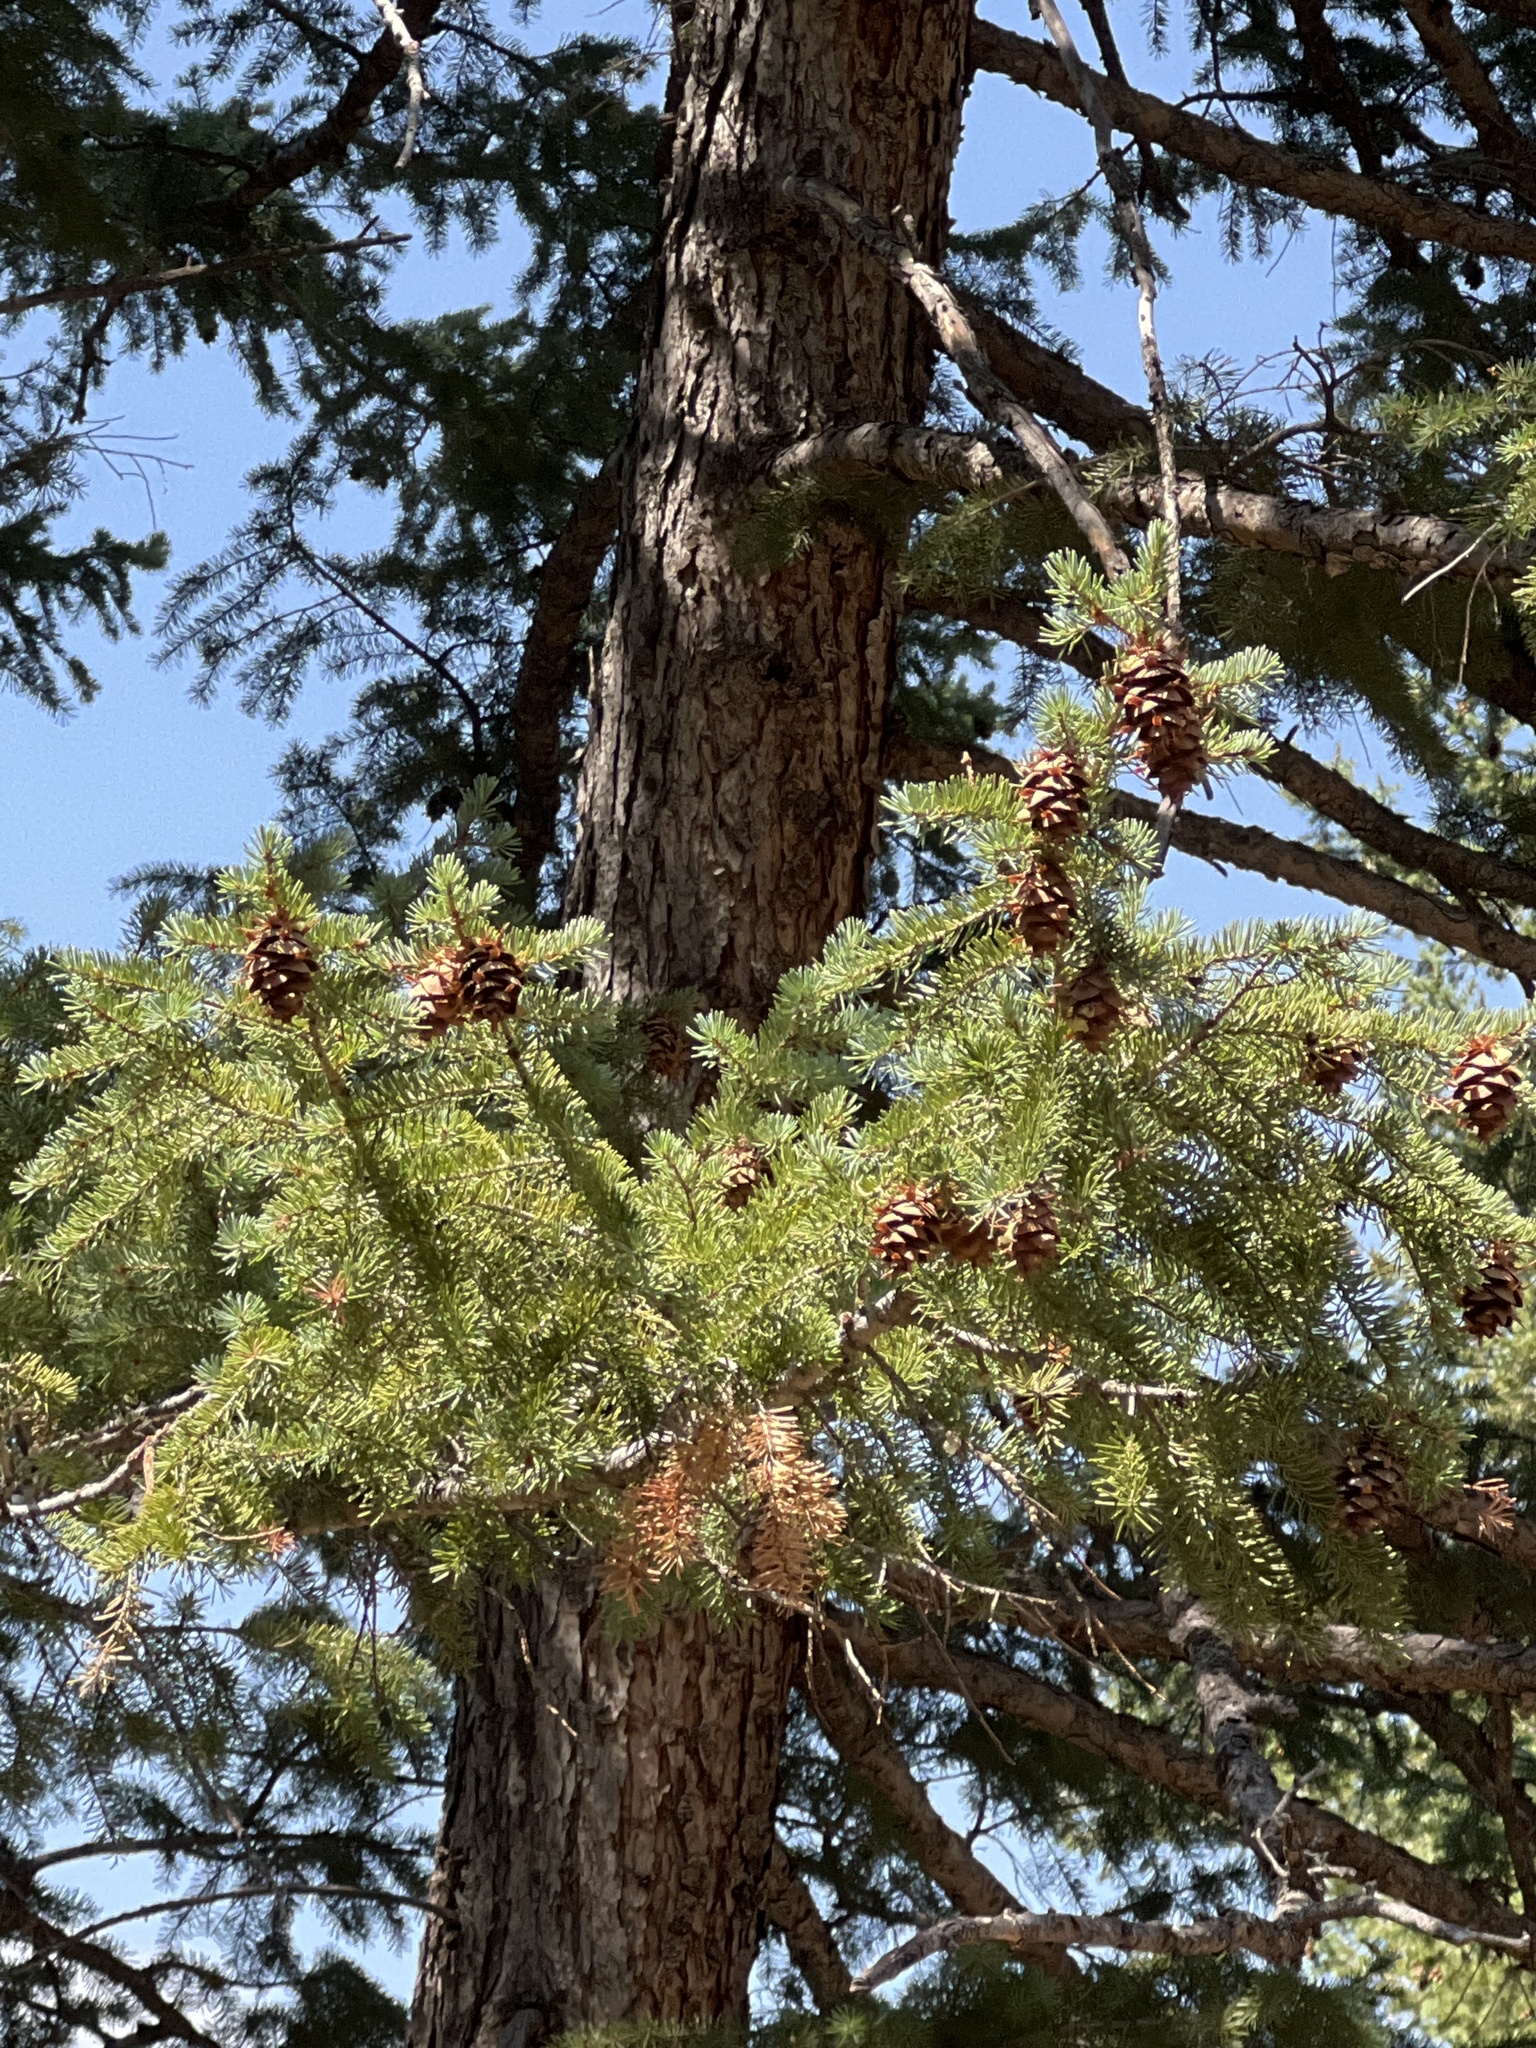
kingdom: Plantae
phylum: Tracheophyta
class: Pinopsida
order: Pinales
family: Pinaceae
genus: Pseudotsuga
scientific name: Pseudotsuga menziesii
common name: Douglas fir
